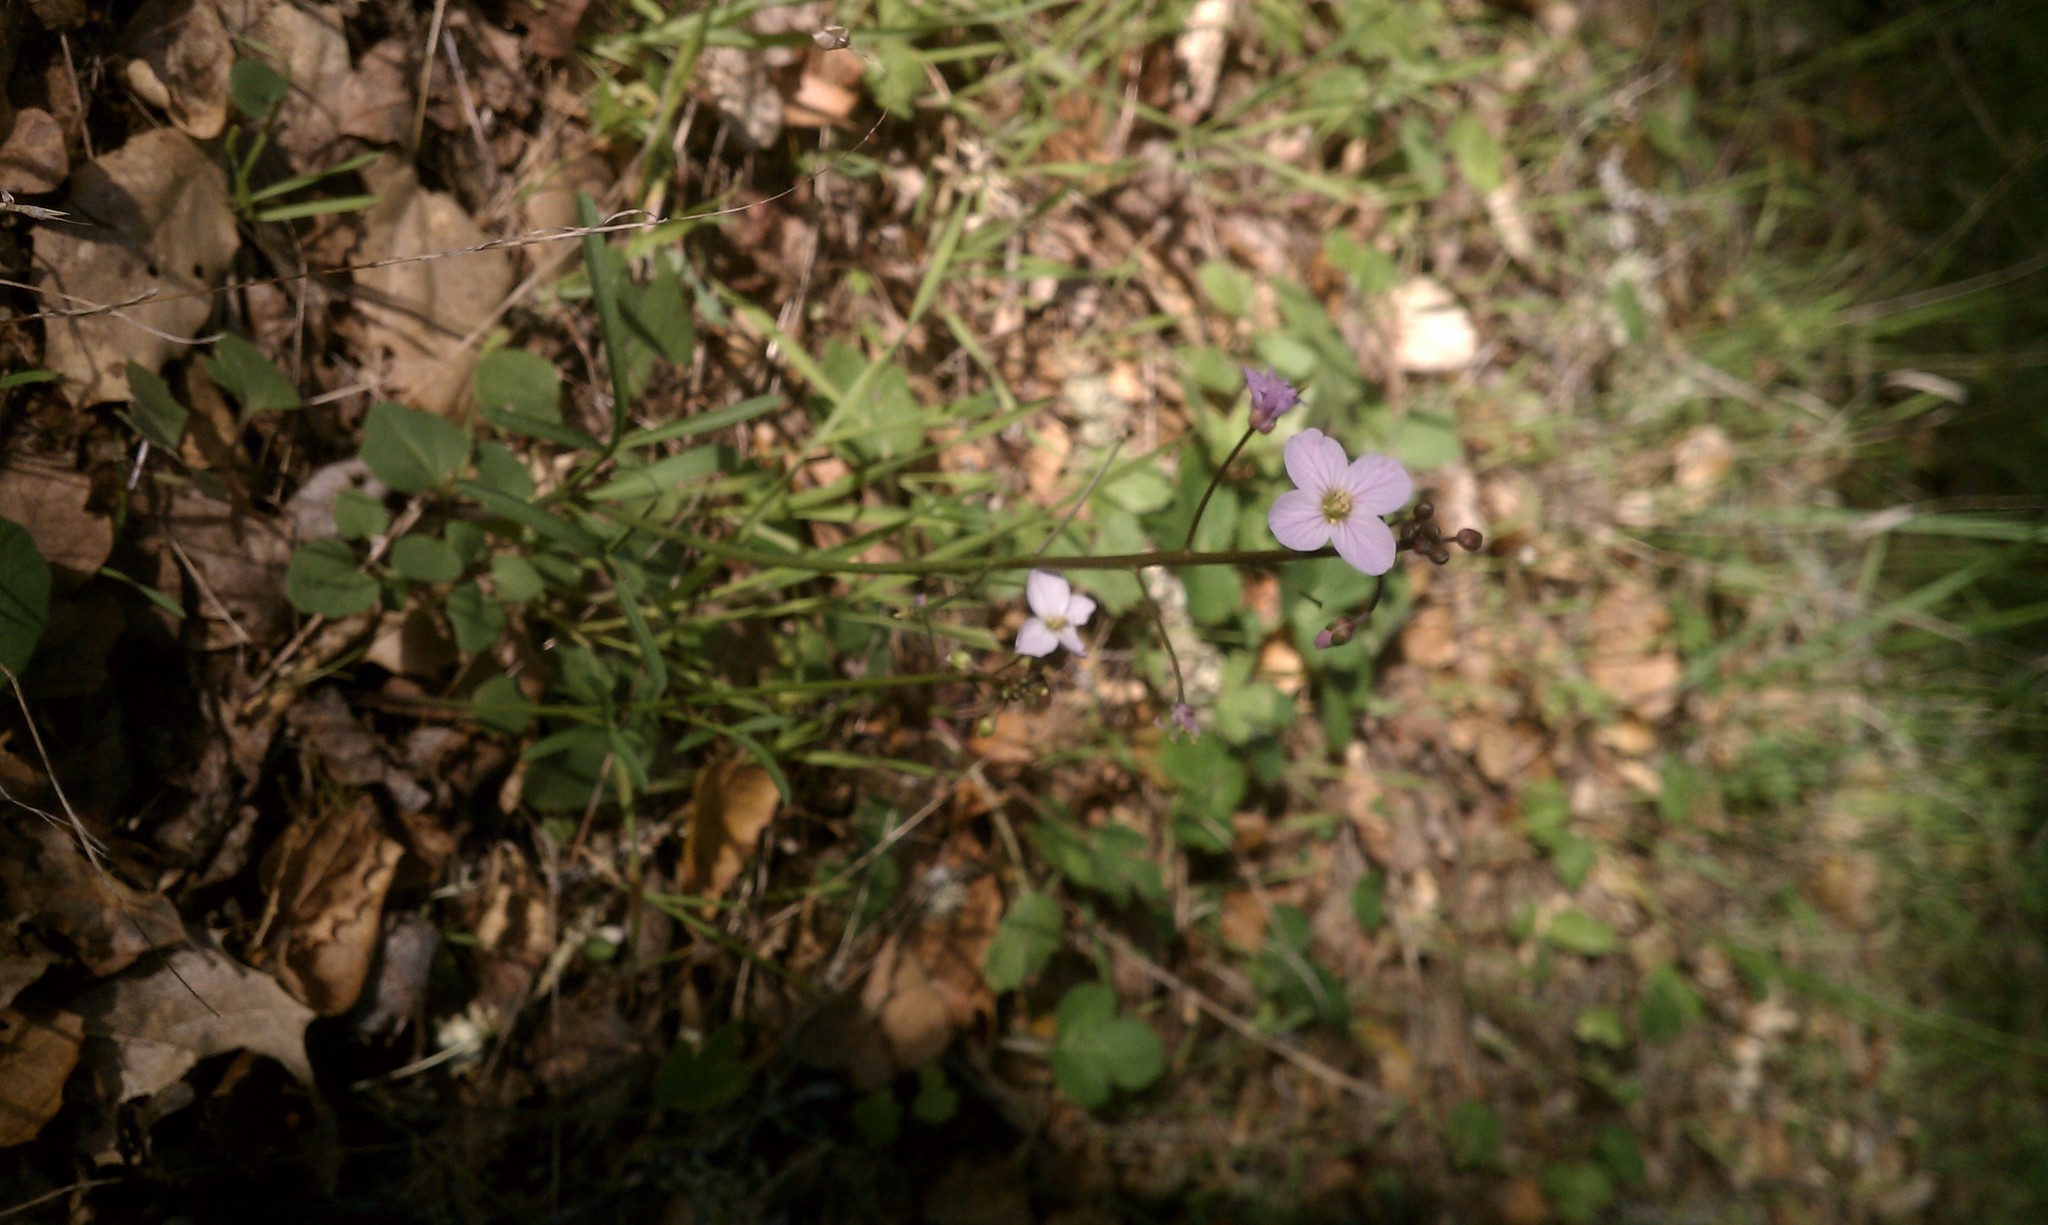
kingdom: Plantae
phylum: Tracheophyta
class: Magnoliopsida
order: Brassicales
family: Brassicaceae
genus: Cardamine
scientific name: Cardamine californica
